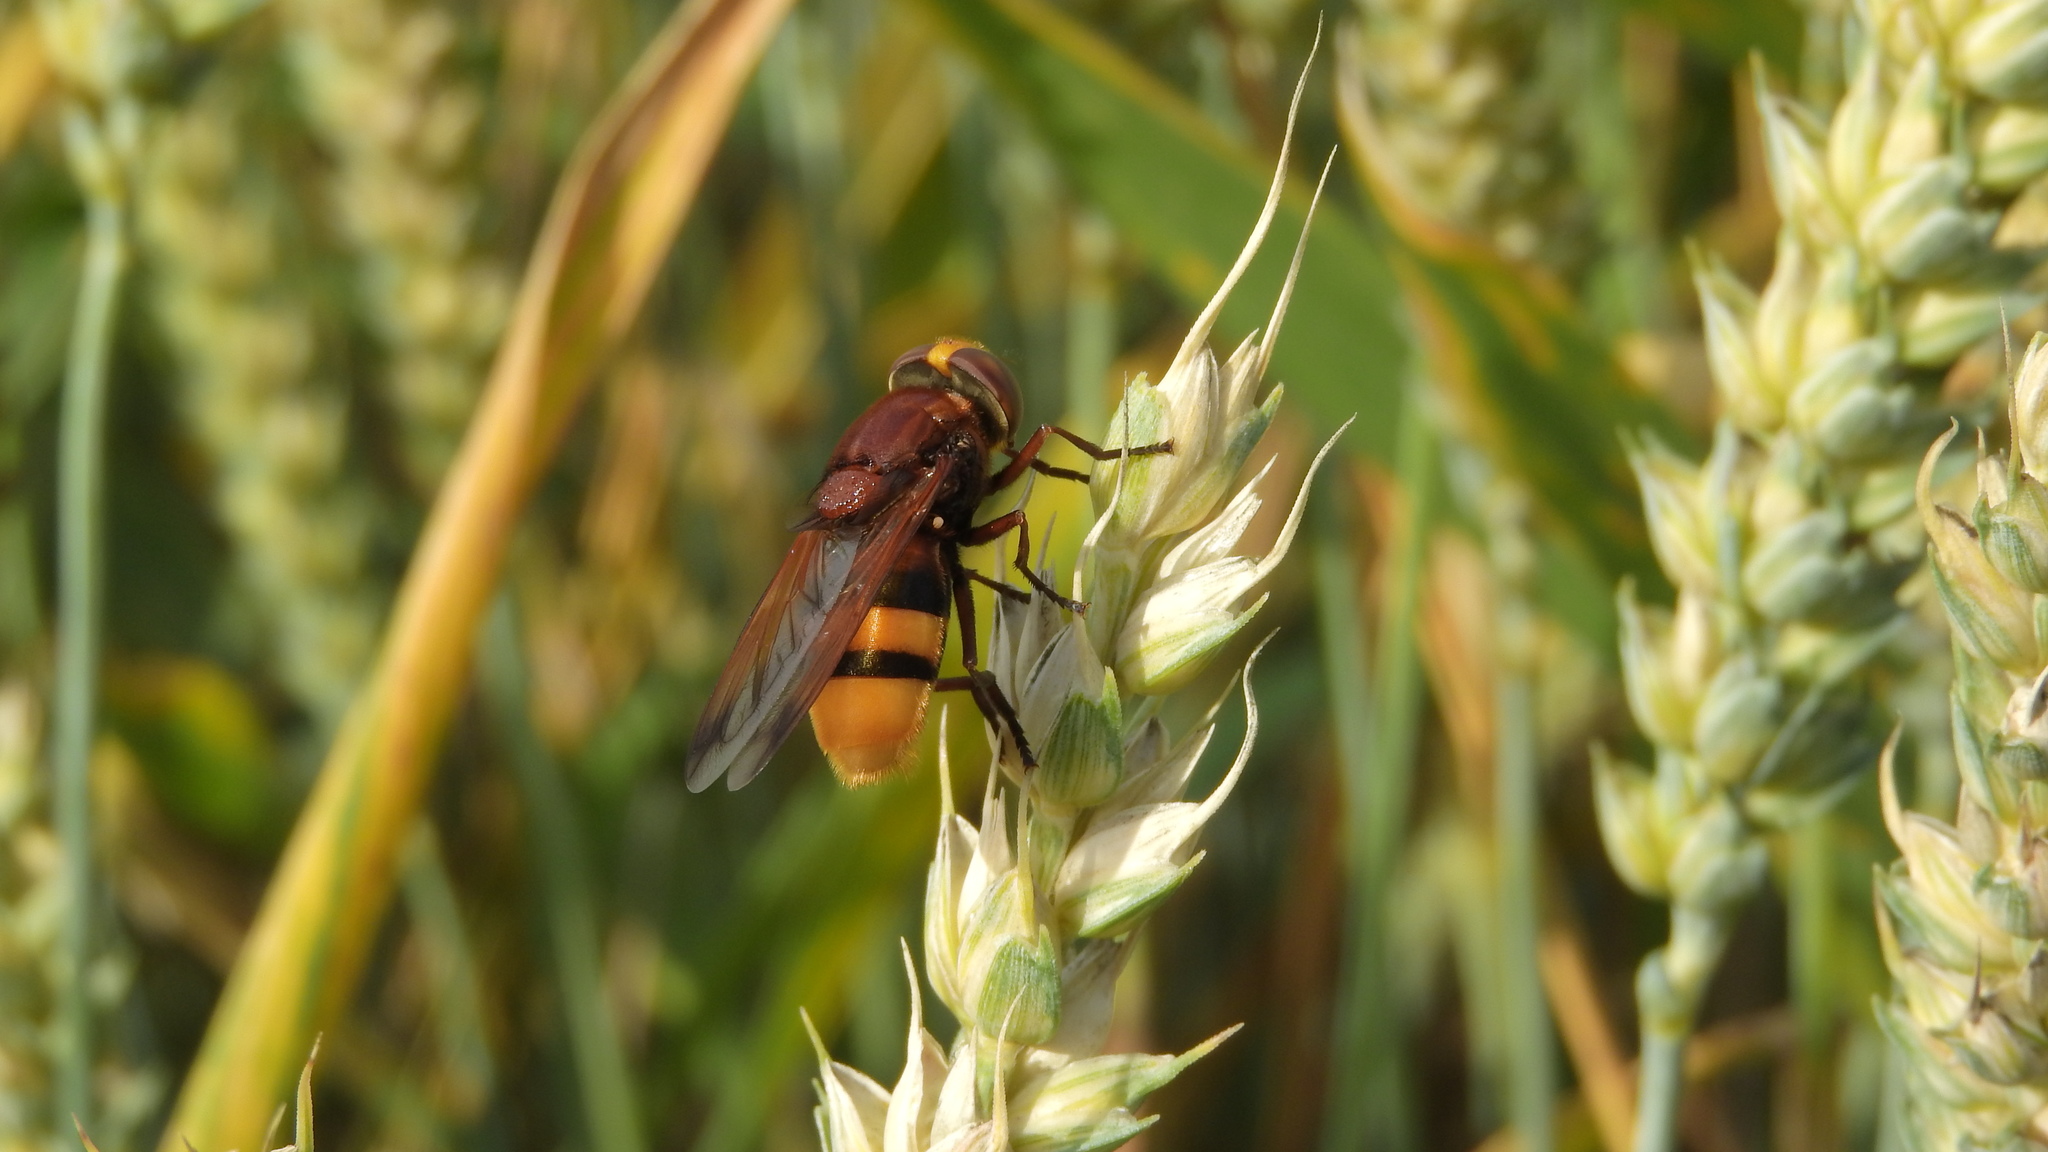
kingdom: Animalia
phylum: Arthropoda
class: Insecta
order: Diptera
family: Syrphidae
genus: Volucella
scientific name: Volucella zonaria
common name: Hornet hoverfly
